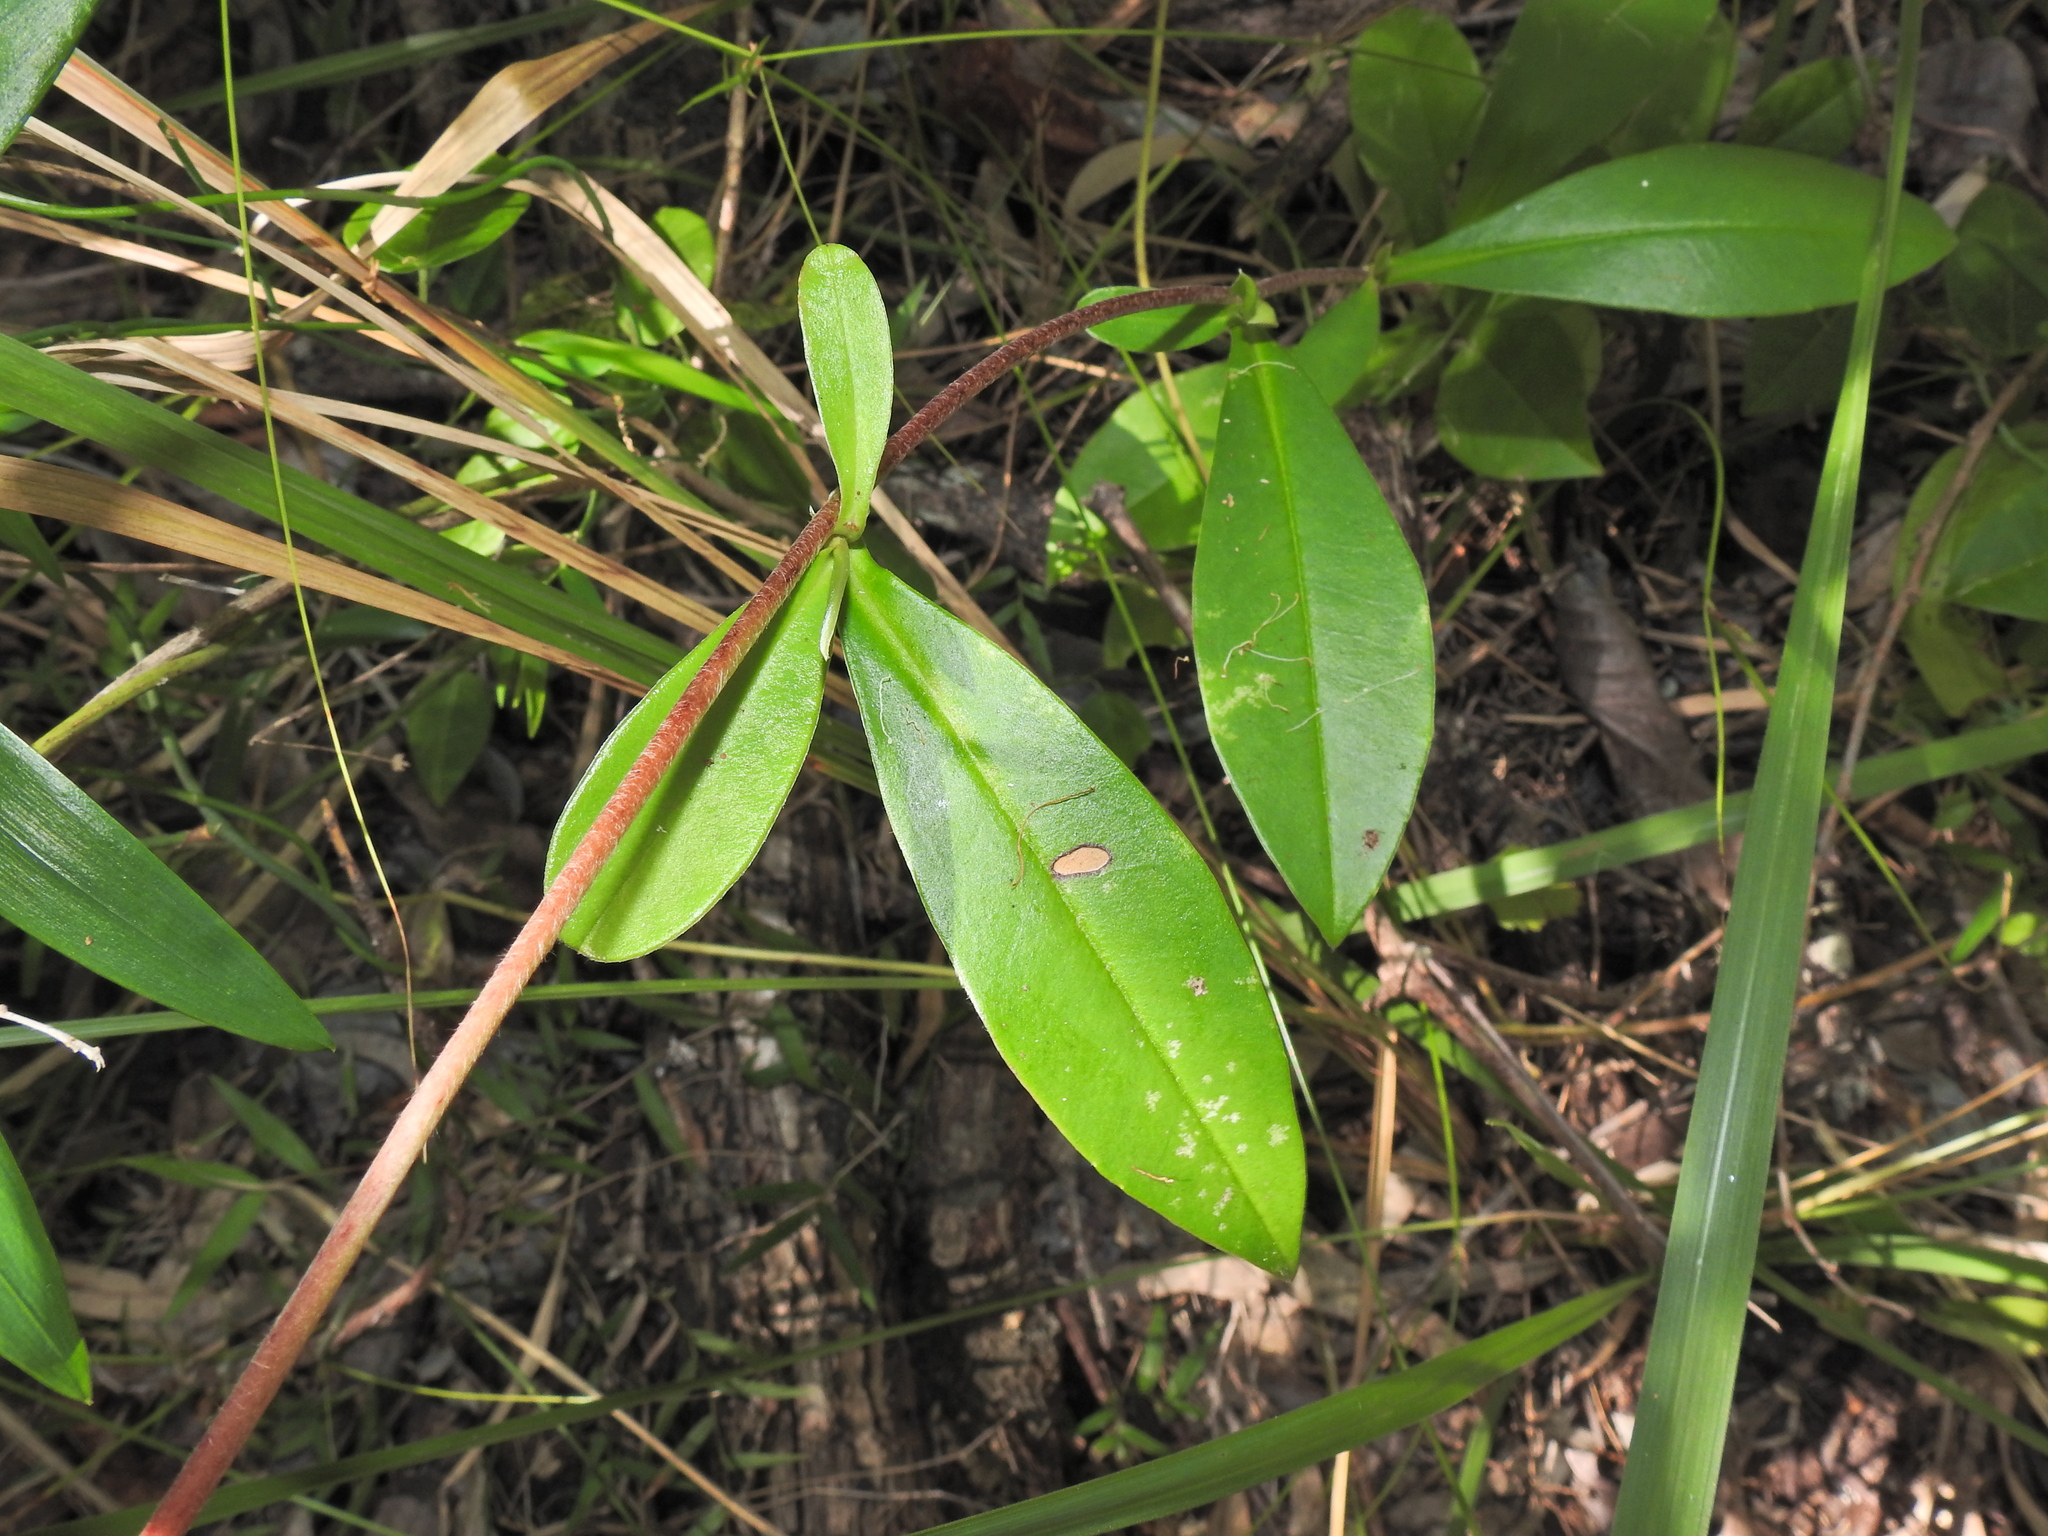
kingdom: Plantae
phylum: Tracheophyta
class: Magnoliopsida
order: Dilleniales
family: Dilleniaceae
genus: Hibbertia
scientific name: Hibbertia scandens
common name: Climbing guinea-flower
